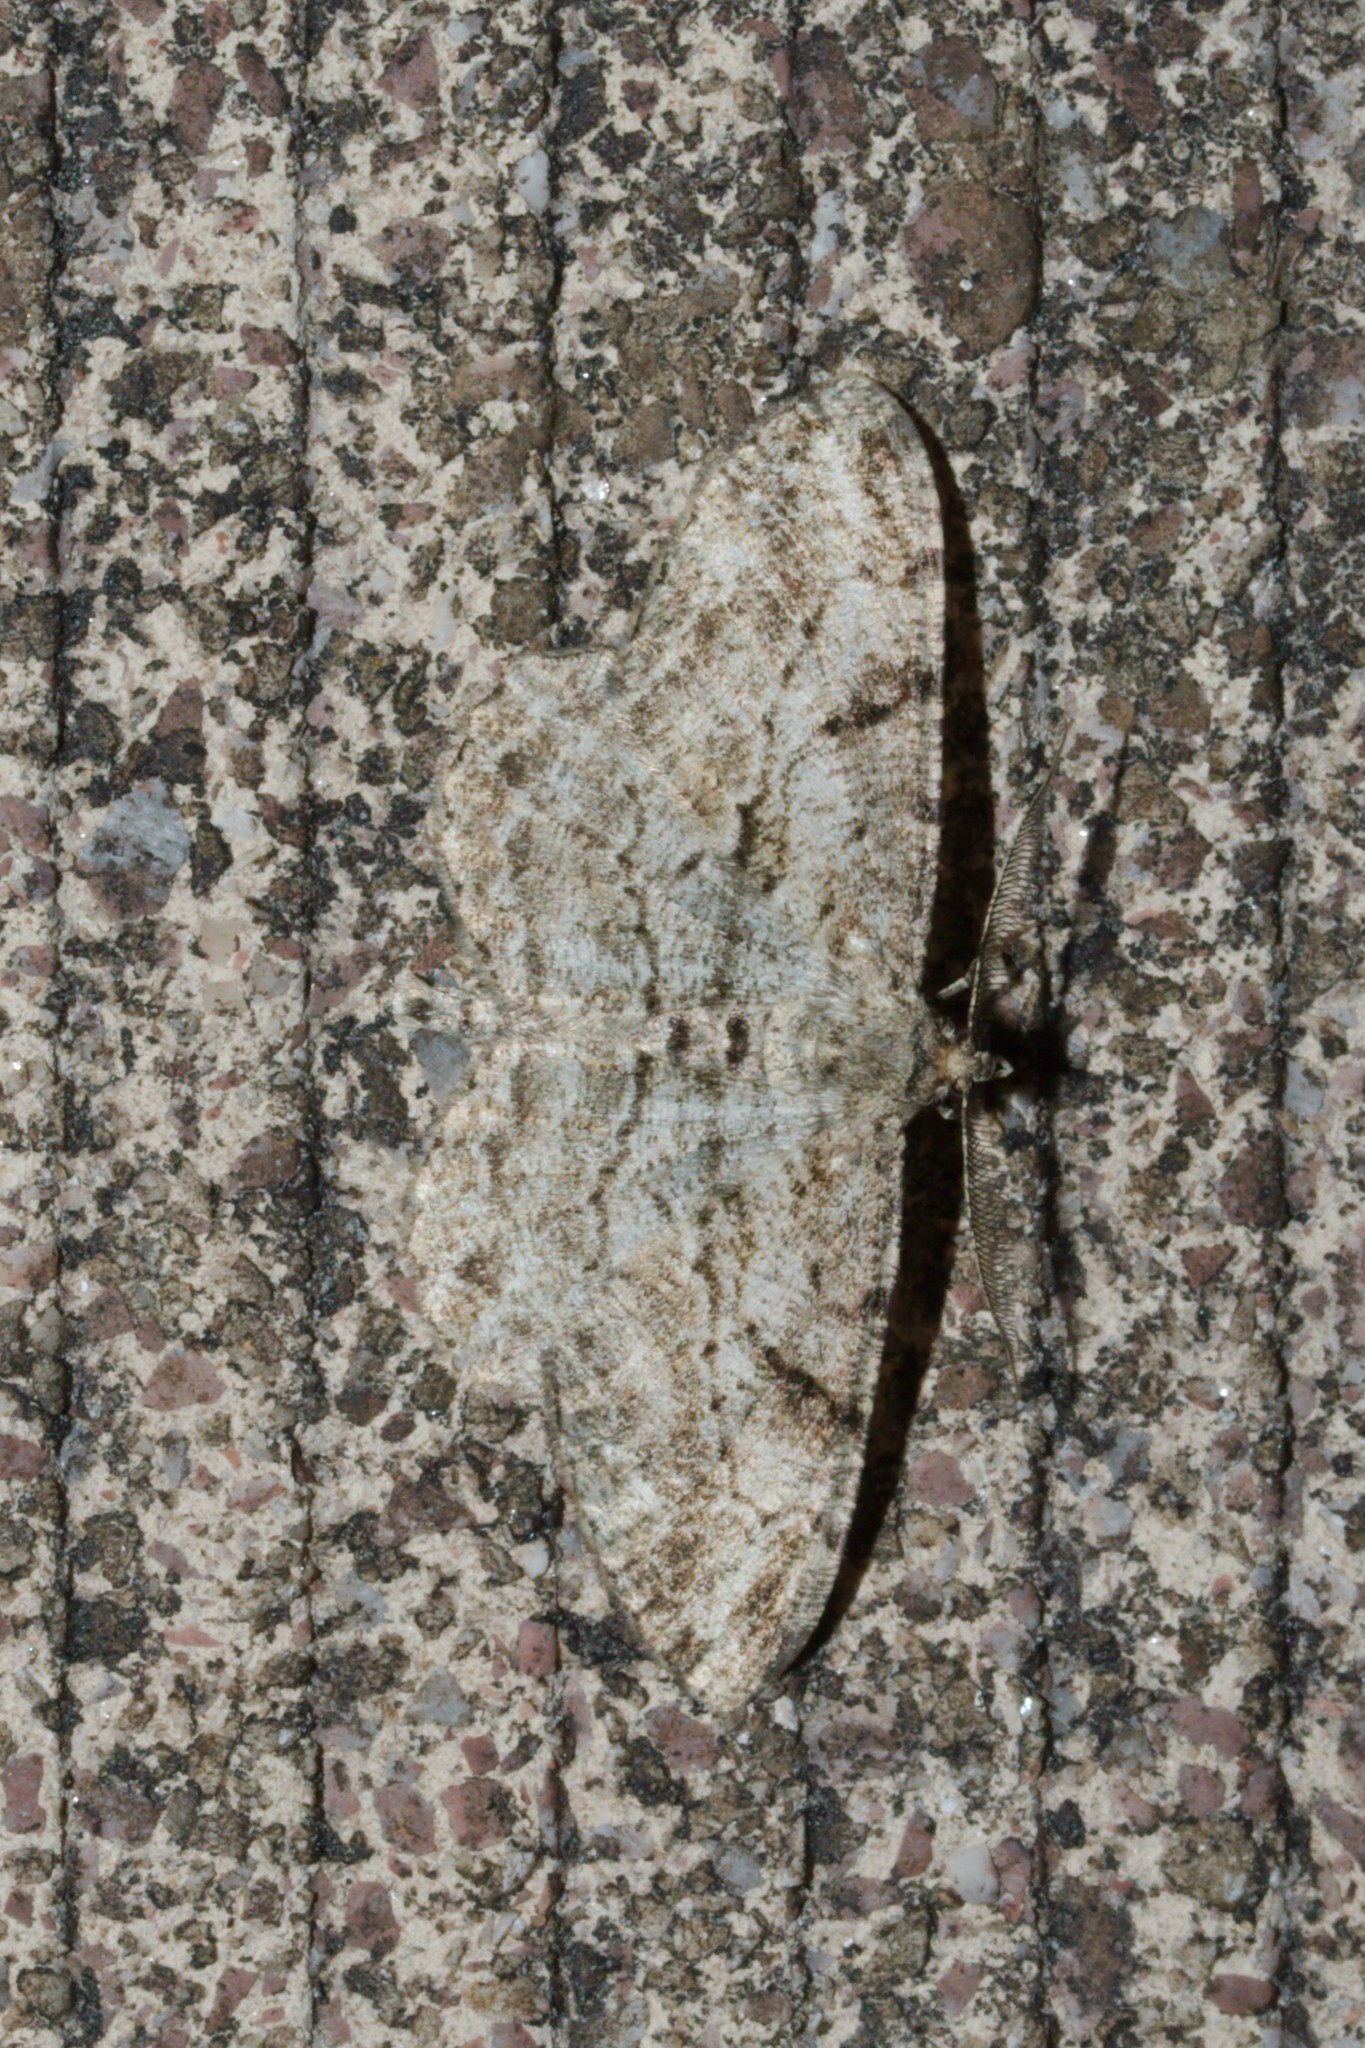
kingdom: Animalia
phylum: Arthropoda
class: Insecta
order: Lepidoptera
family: Geometridae
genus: Peribatodes
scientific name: Peribatodes rhomboidaria
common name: Willow beauty
